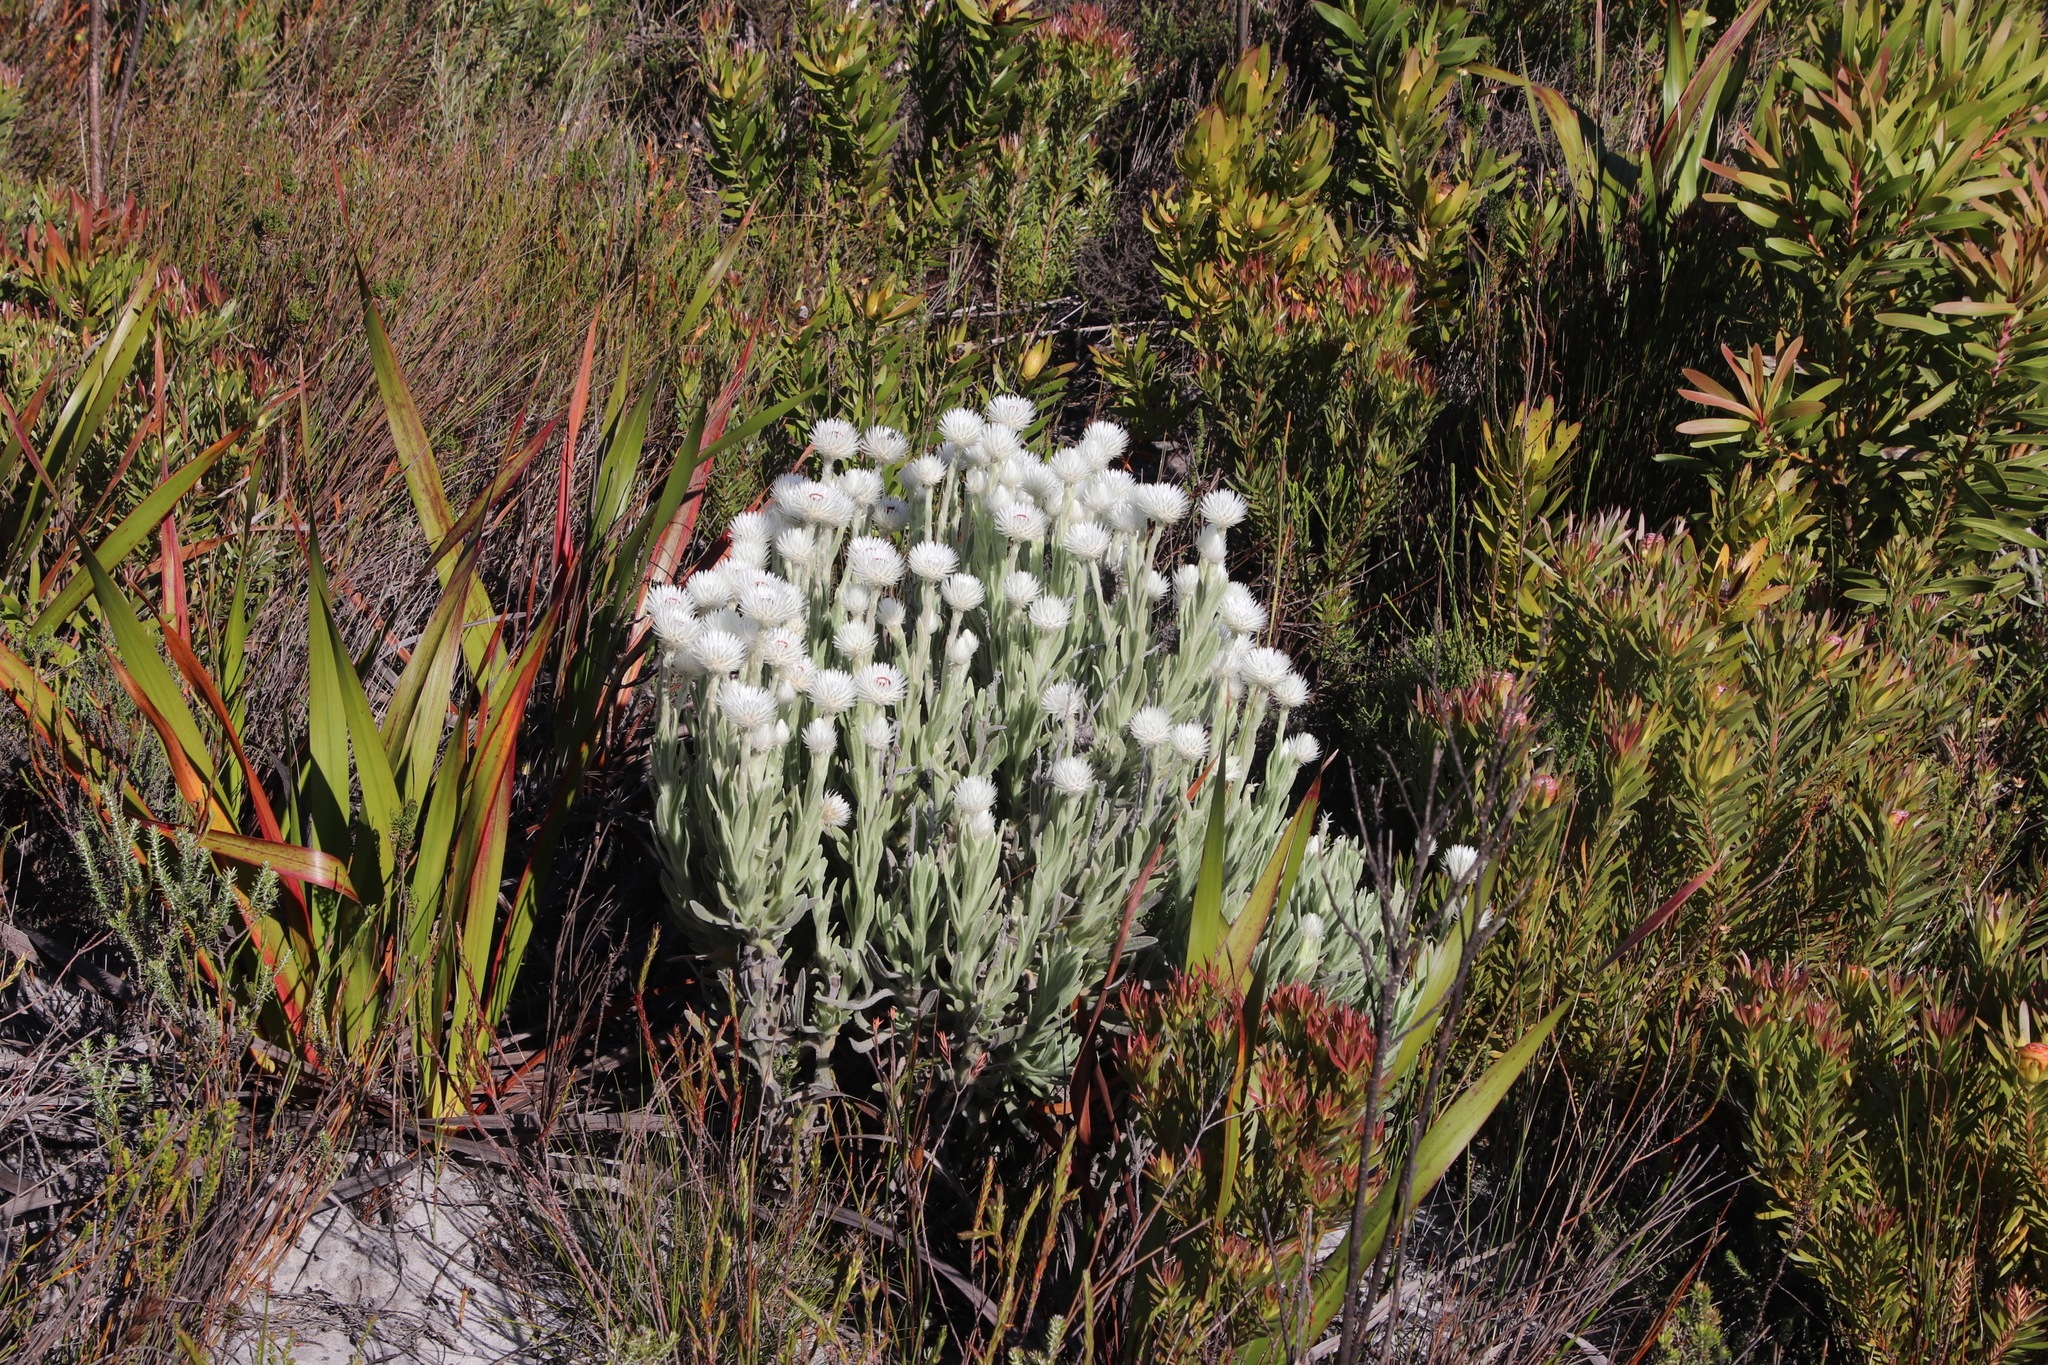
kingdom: Plantae
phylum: Tracheophyta
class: Magnoliopsida
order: Asterales
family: Asteraceae
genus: Syncarpha
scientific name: Syncarpha vestita
